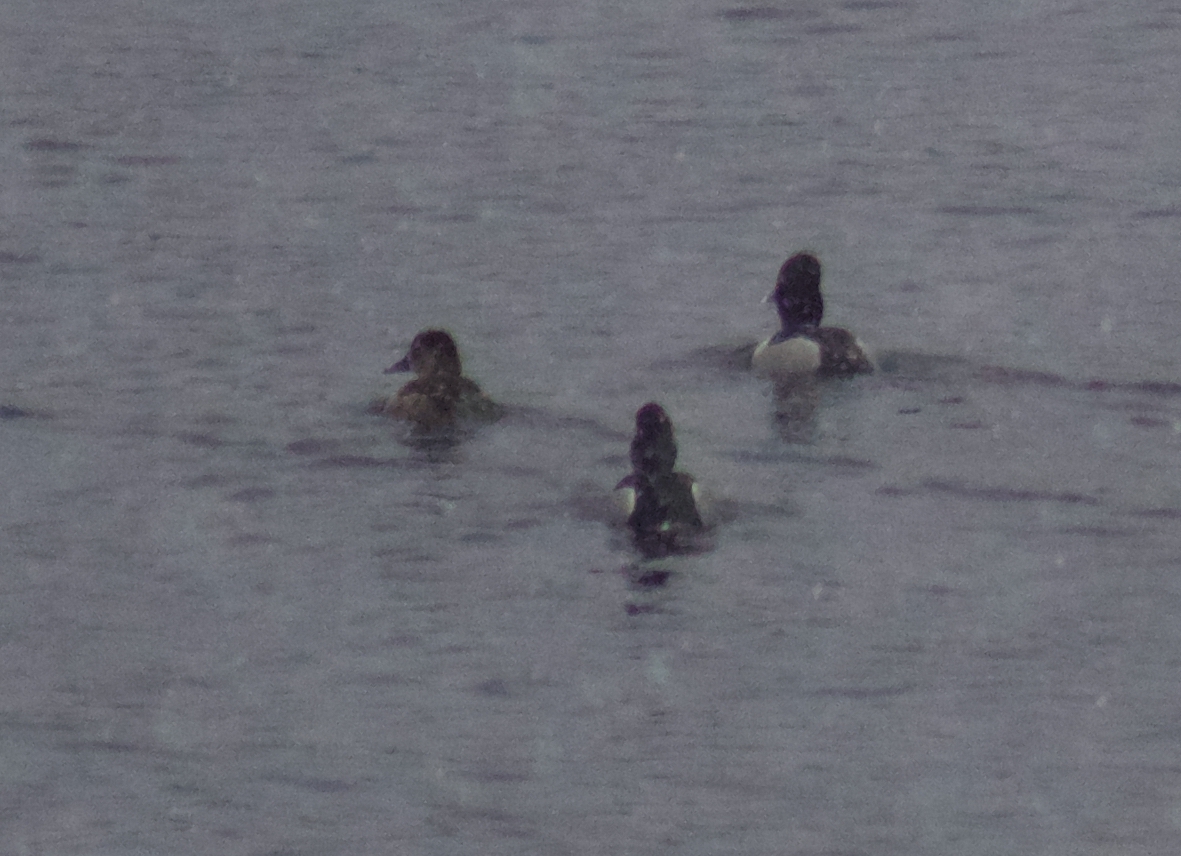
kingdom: Animalia
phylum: Chordata
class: Aves
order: Anseriformes
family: Anatidae
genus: Aythya
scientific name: Aythya collaris
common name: Ring-necked duck
